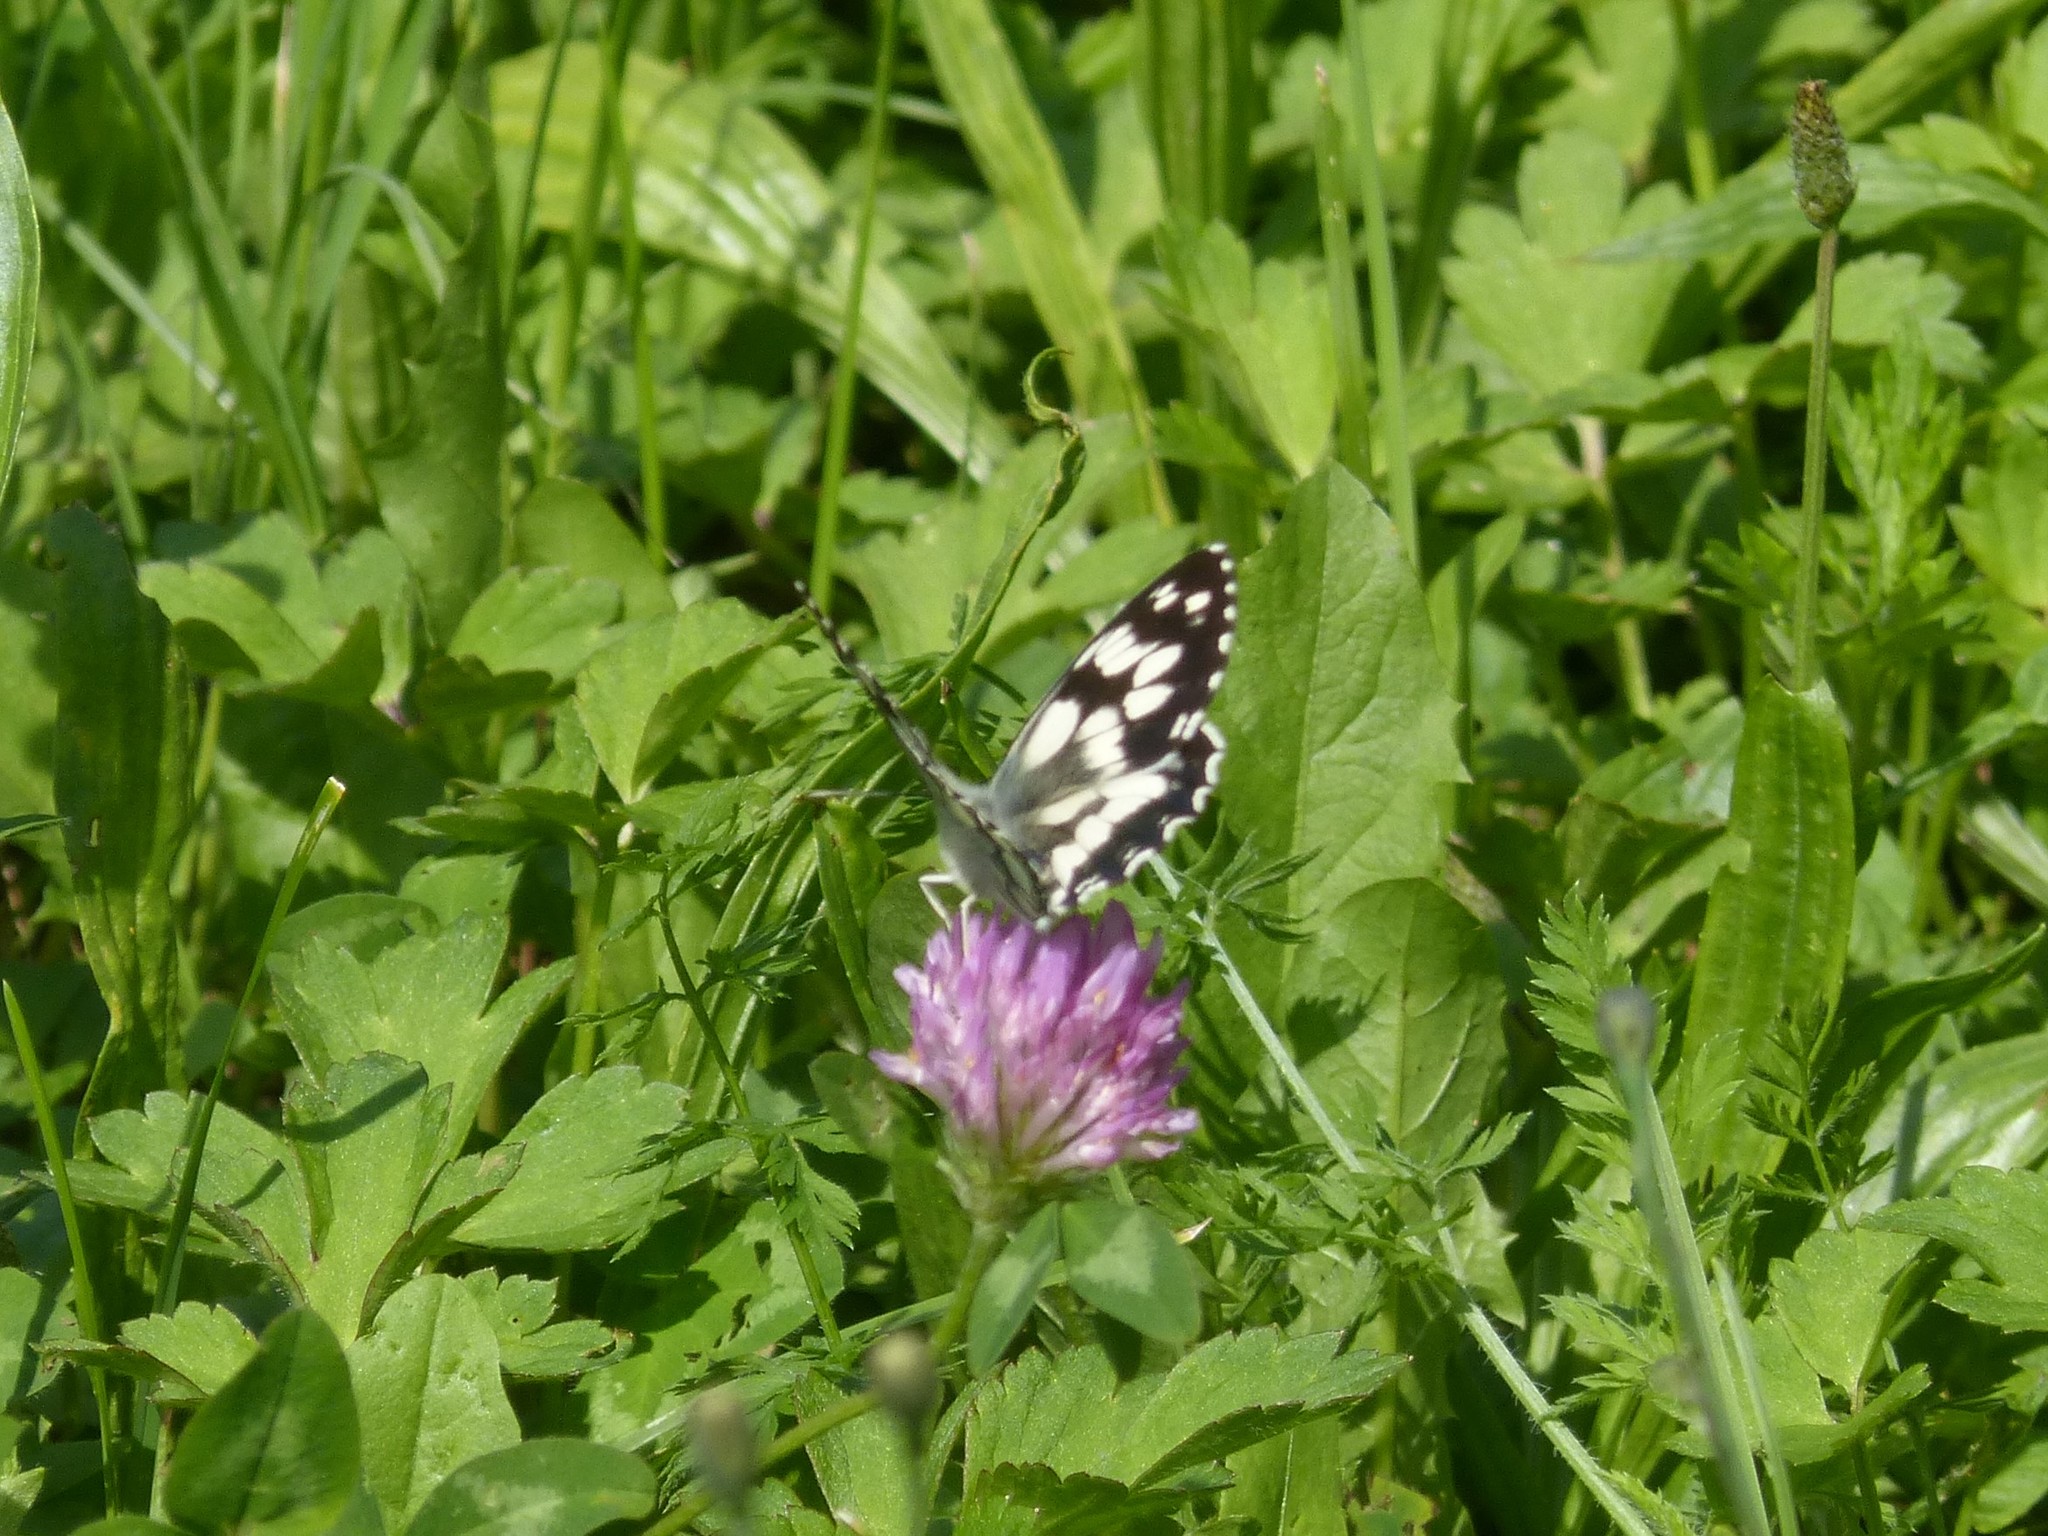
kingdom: Animalia
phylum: Arthropoda
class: Insecta
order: Lepidoptera
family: Nymphalidae
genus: Melanargia
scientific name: Melanargia galathea
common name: Marbled white
